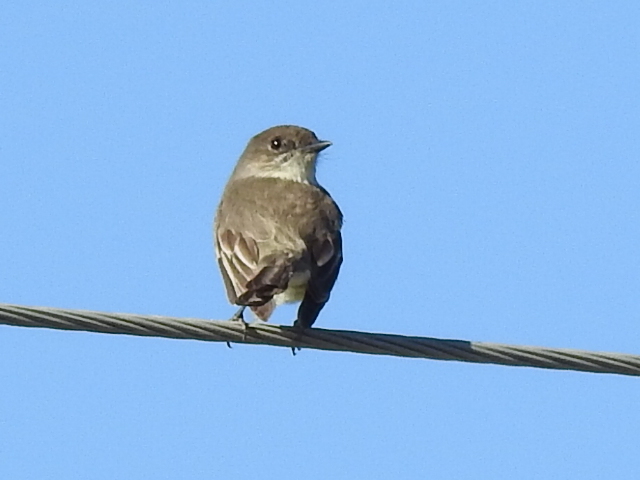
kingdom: Animalia
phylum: Chordata
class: Aves
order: Passeriformes
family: Tyrannidae
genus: Sayornis
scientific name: Sayornis phoebe
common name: Eastern phoebe
